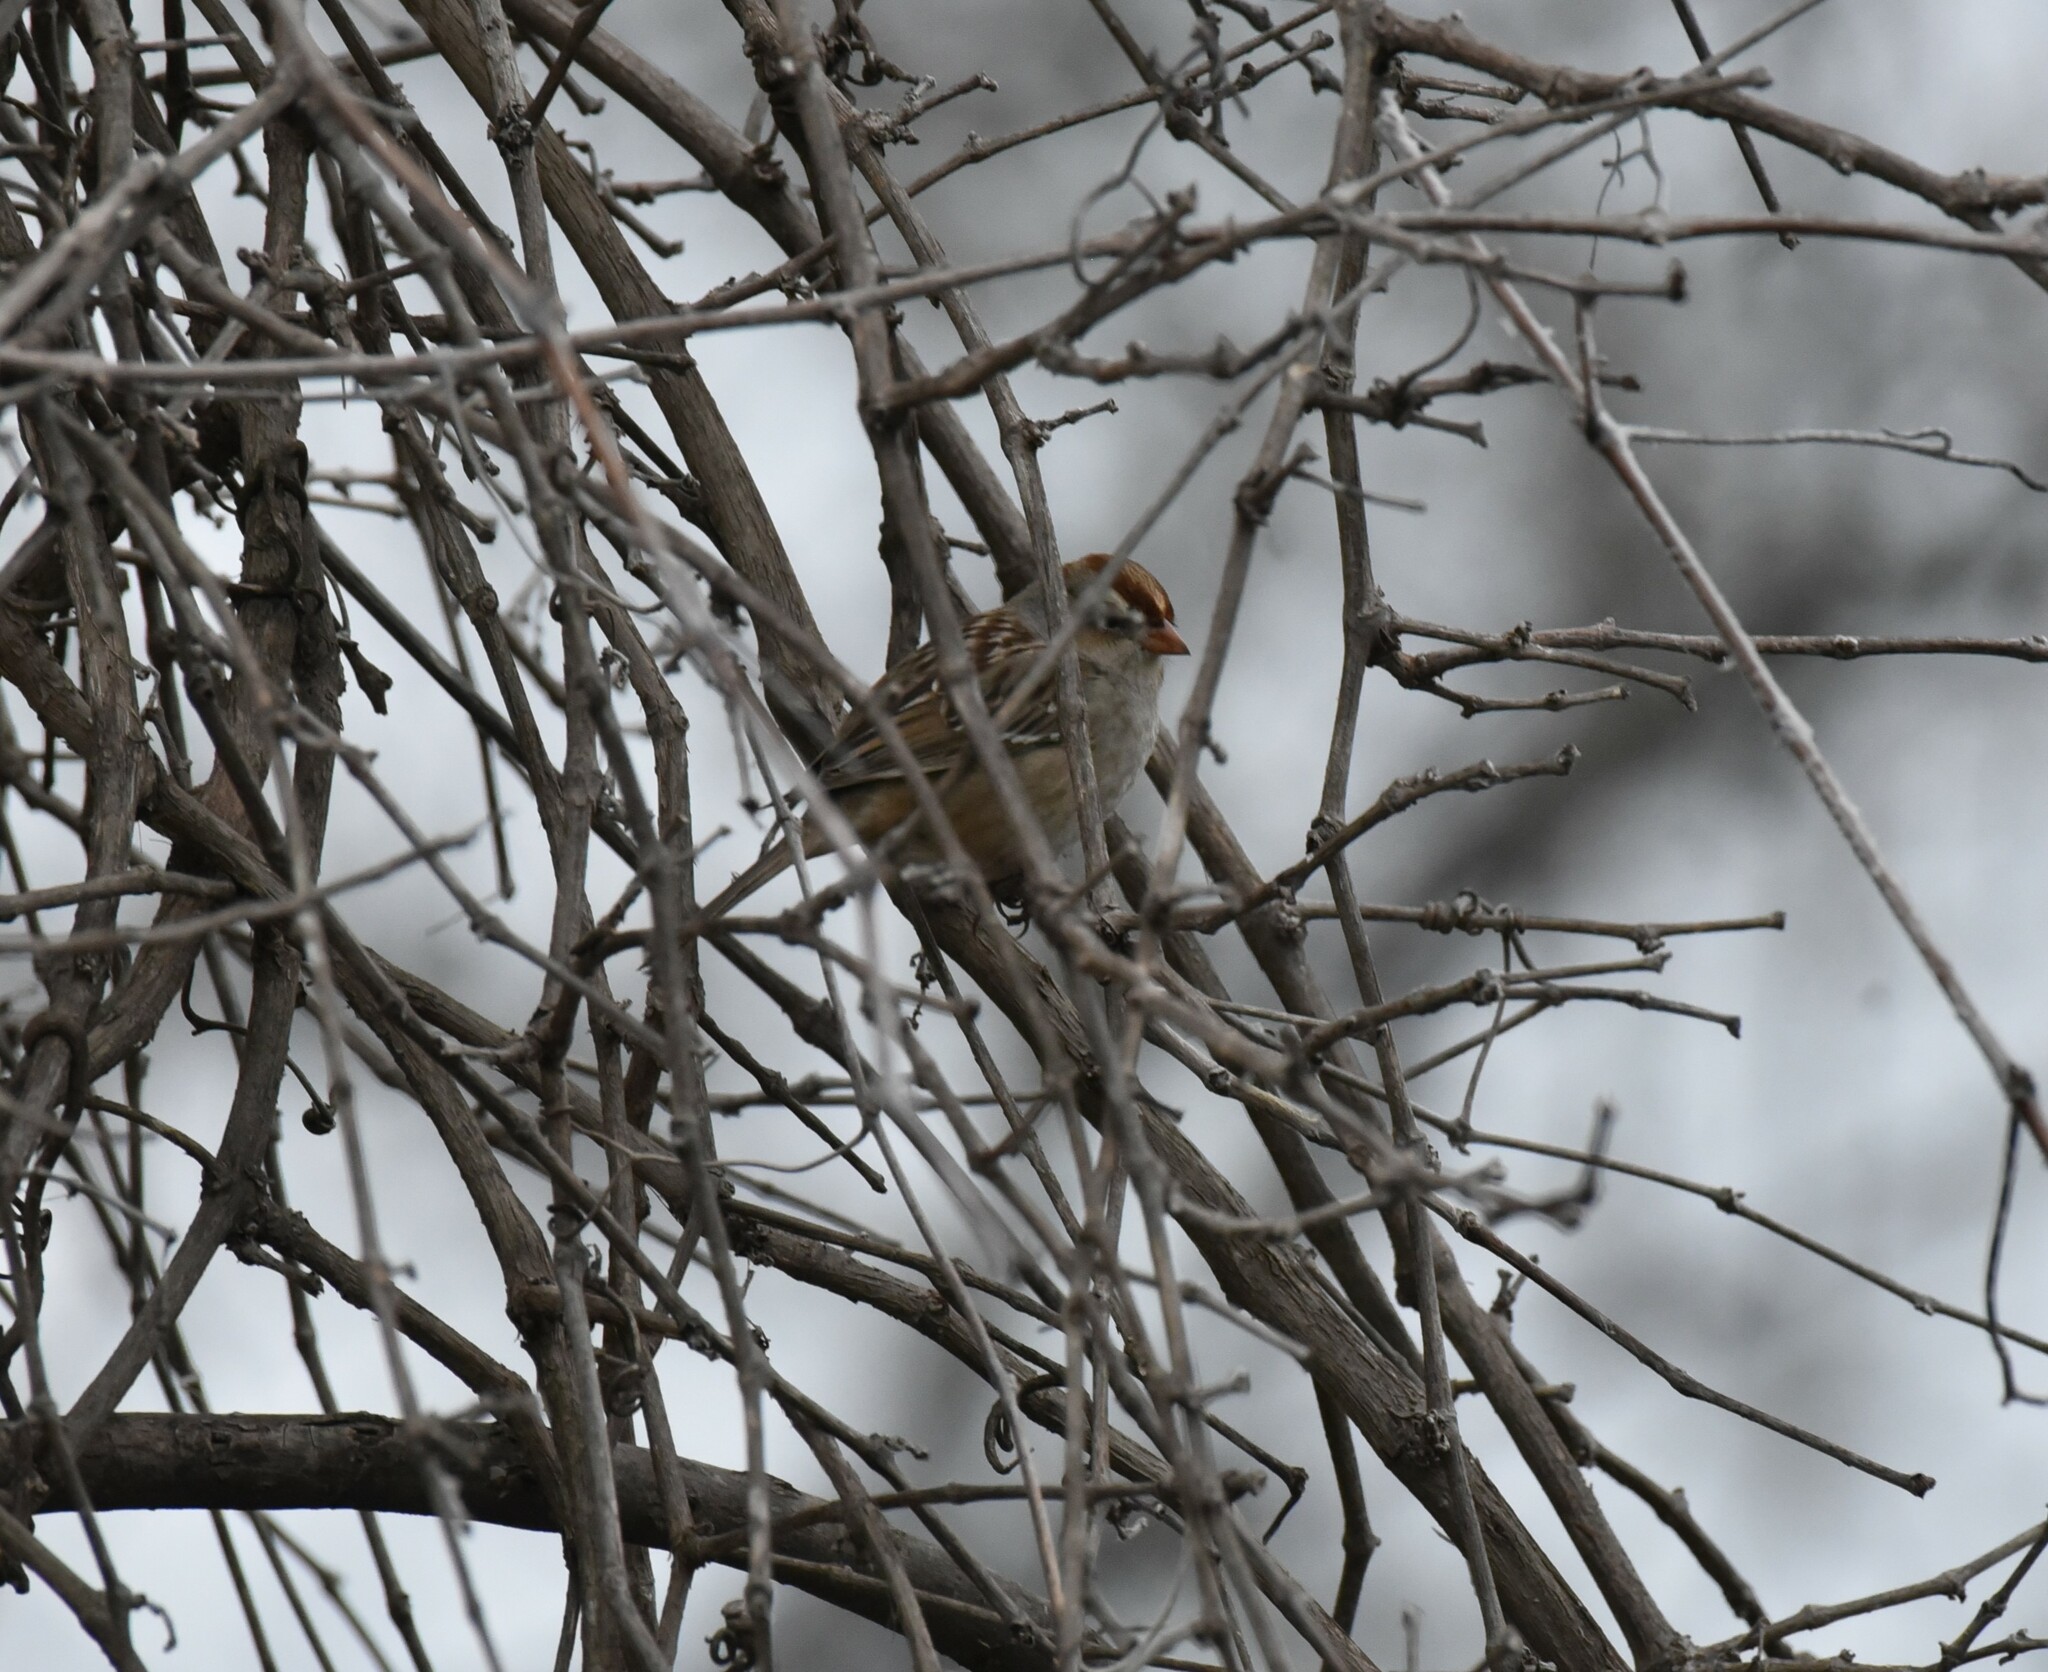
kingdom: Animalia
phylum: Chordata
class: Aves
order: Passeriformes
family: Passerellidae
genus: Zonotrichia
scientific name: Zonotrichia leucophrys
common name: White-crowned sparrow
